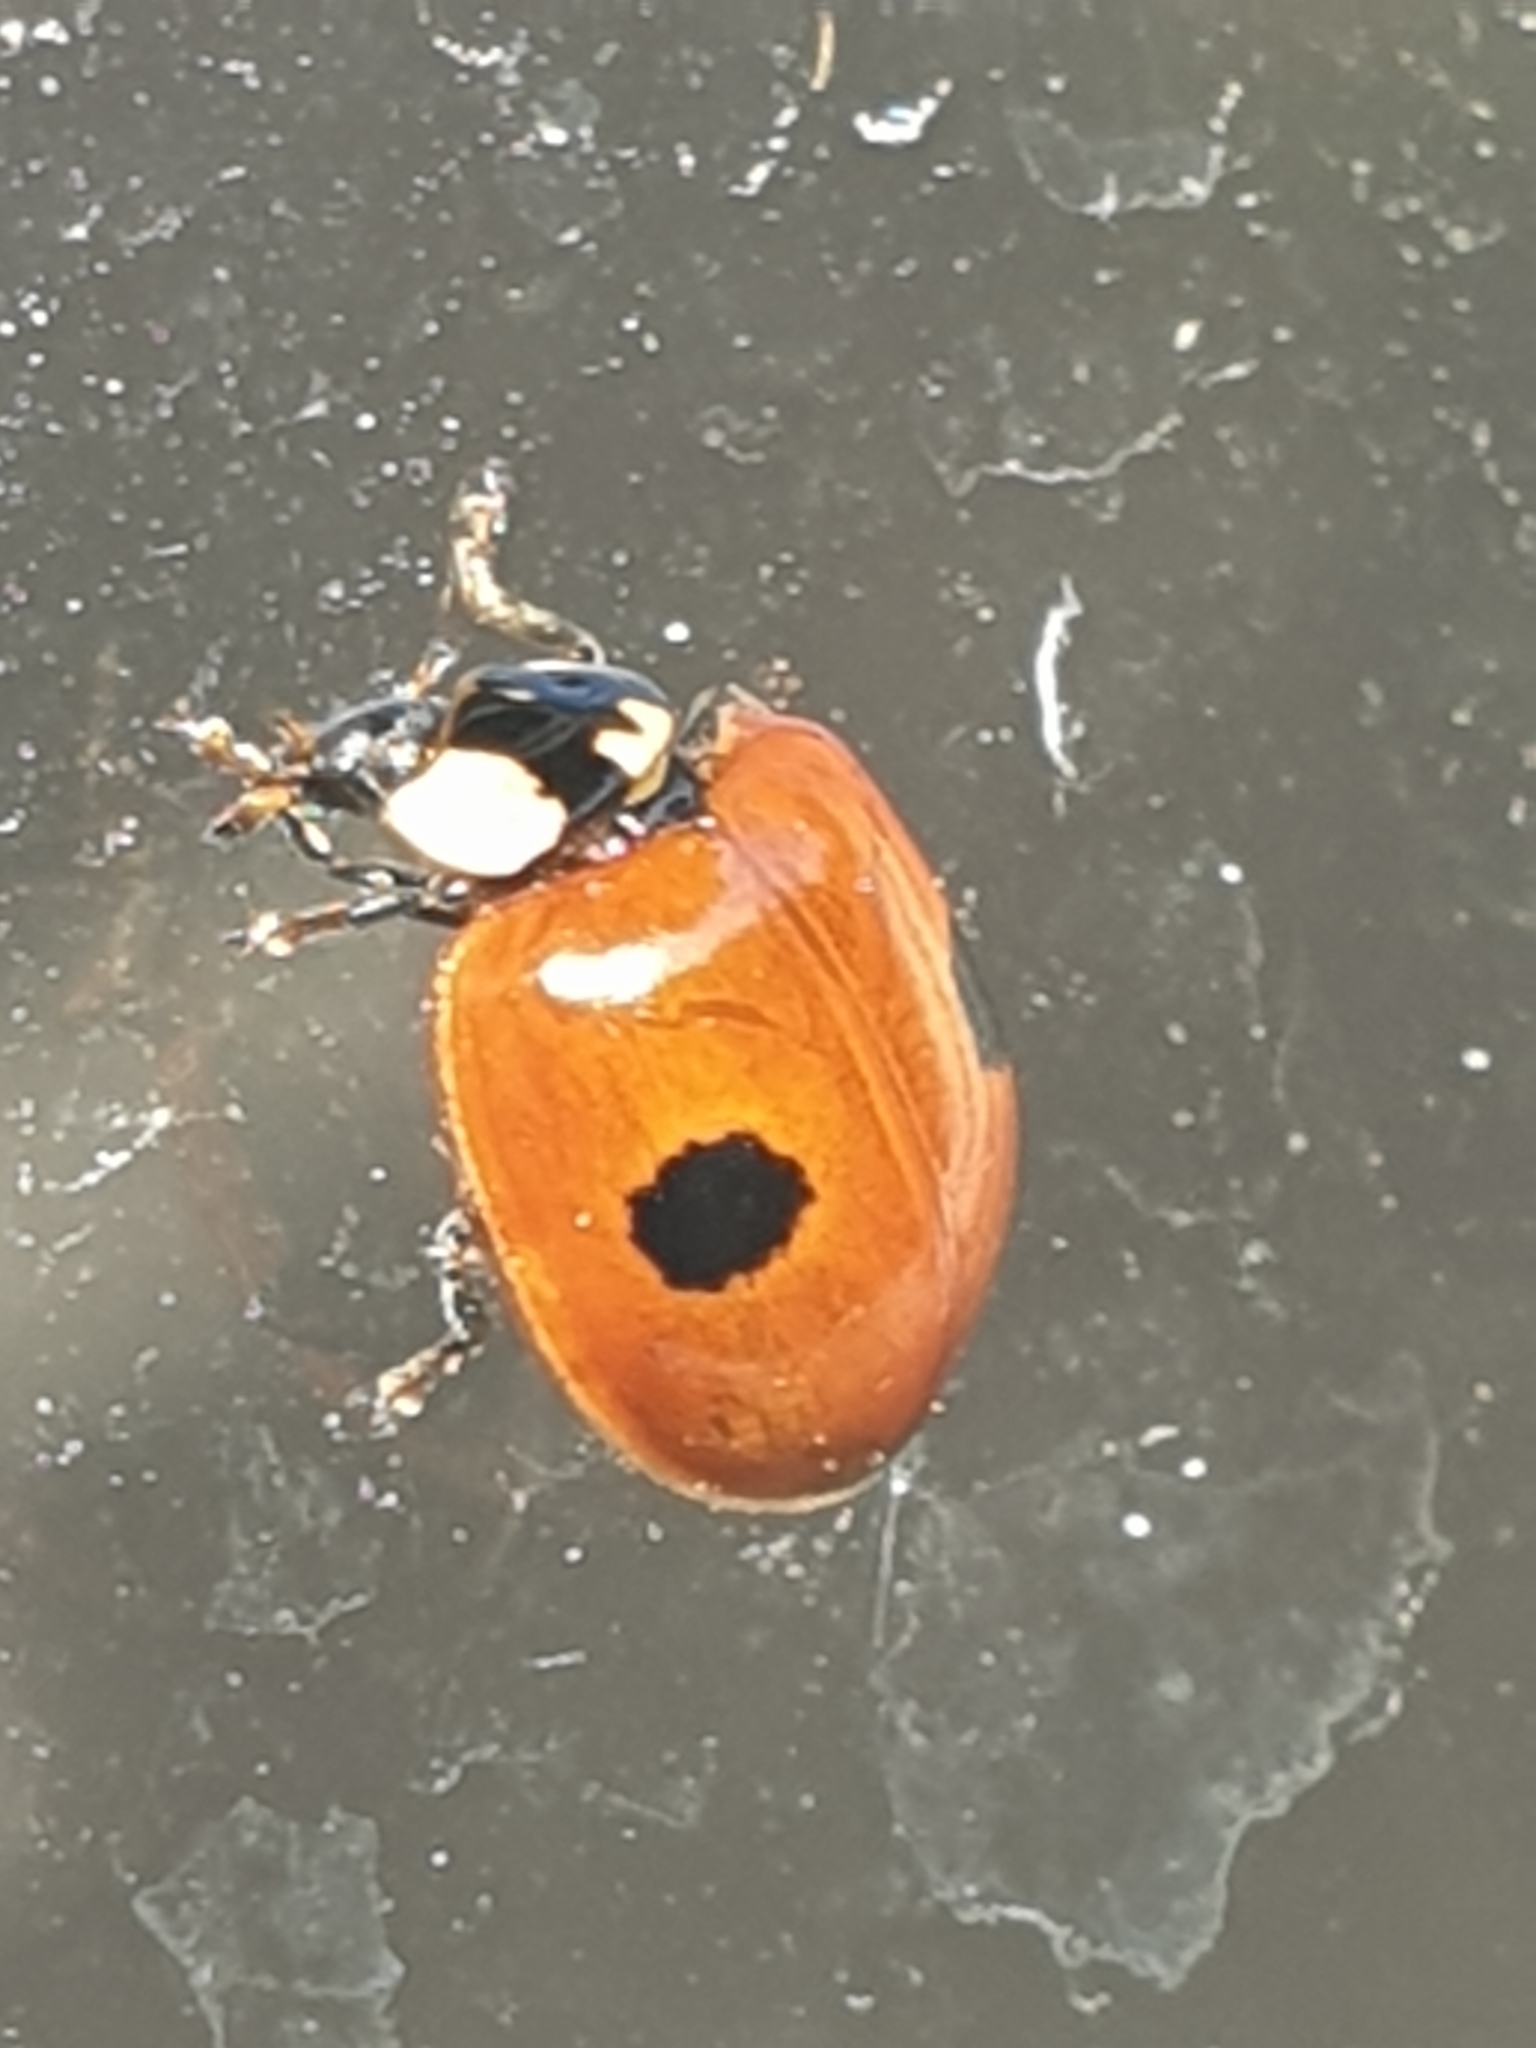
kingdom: Animalia
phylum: Arthropoda
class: Insecta
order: Coleoptera
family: Coccinellidae
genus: Adalia
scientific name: Adalia bipunctata
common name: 2-spot ladybird
